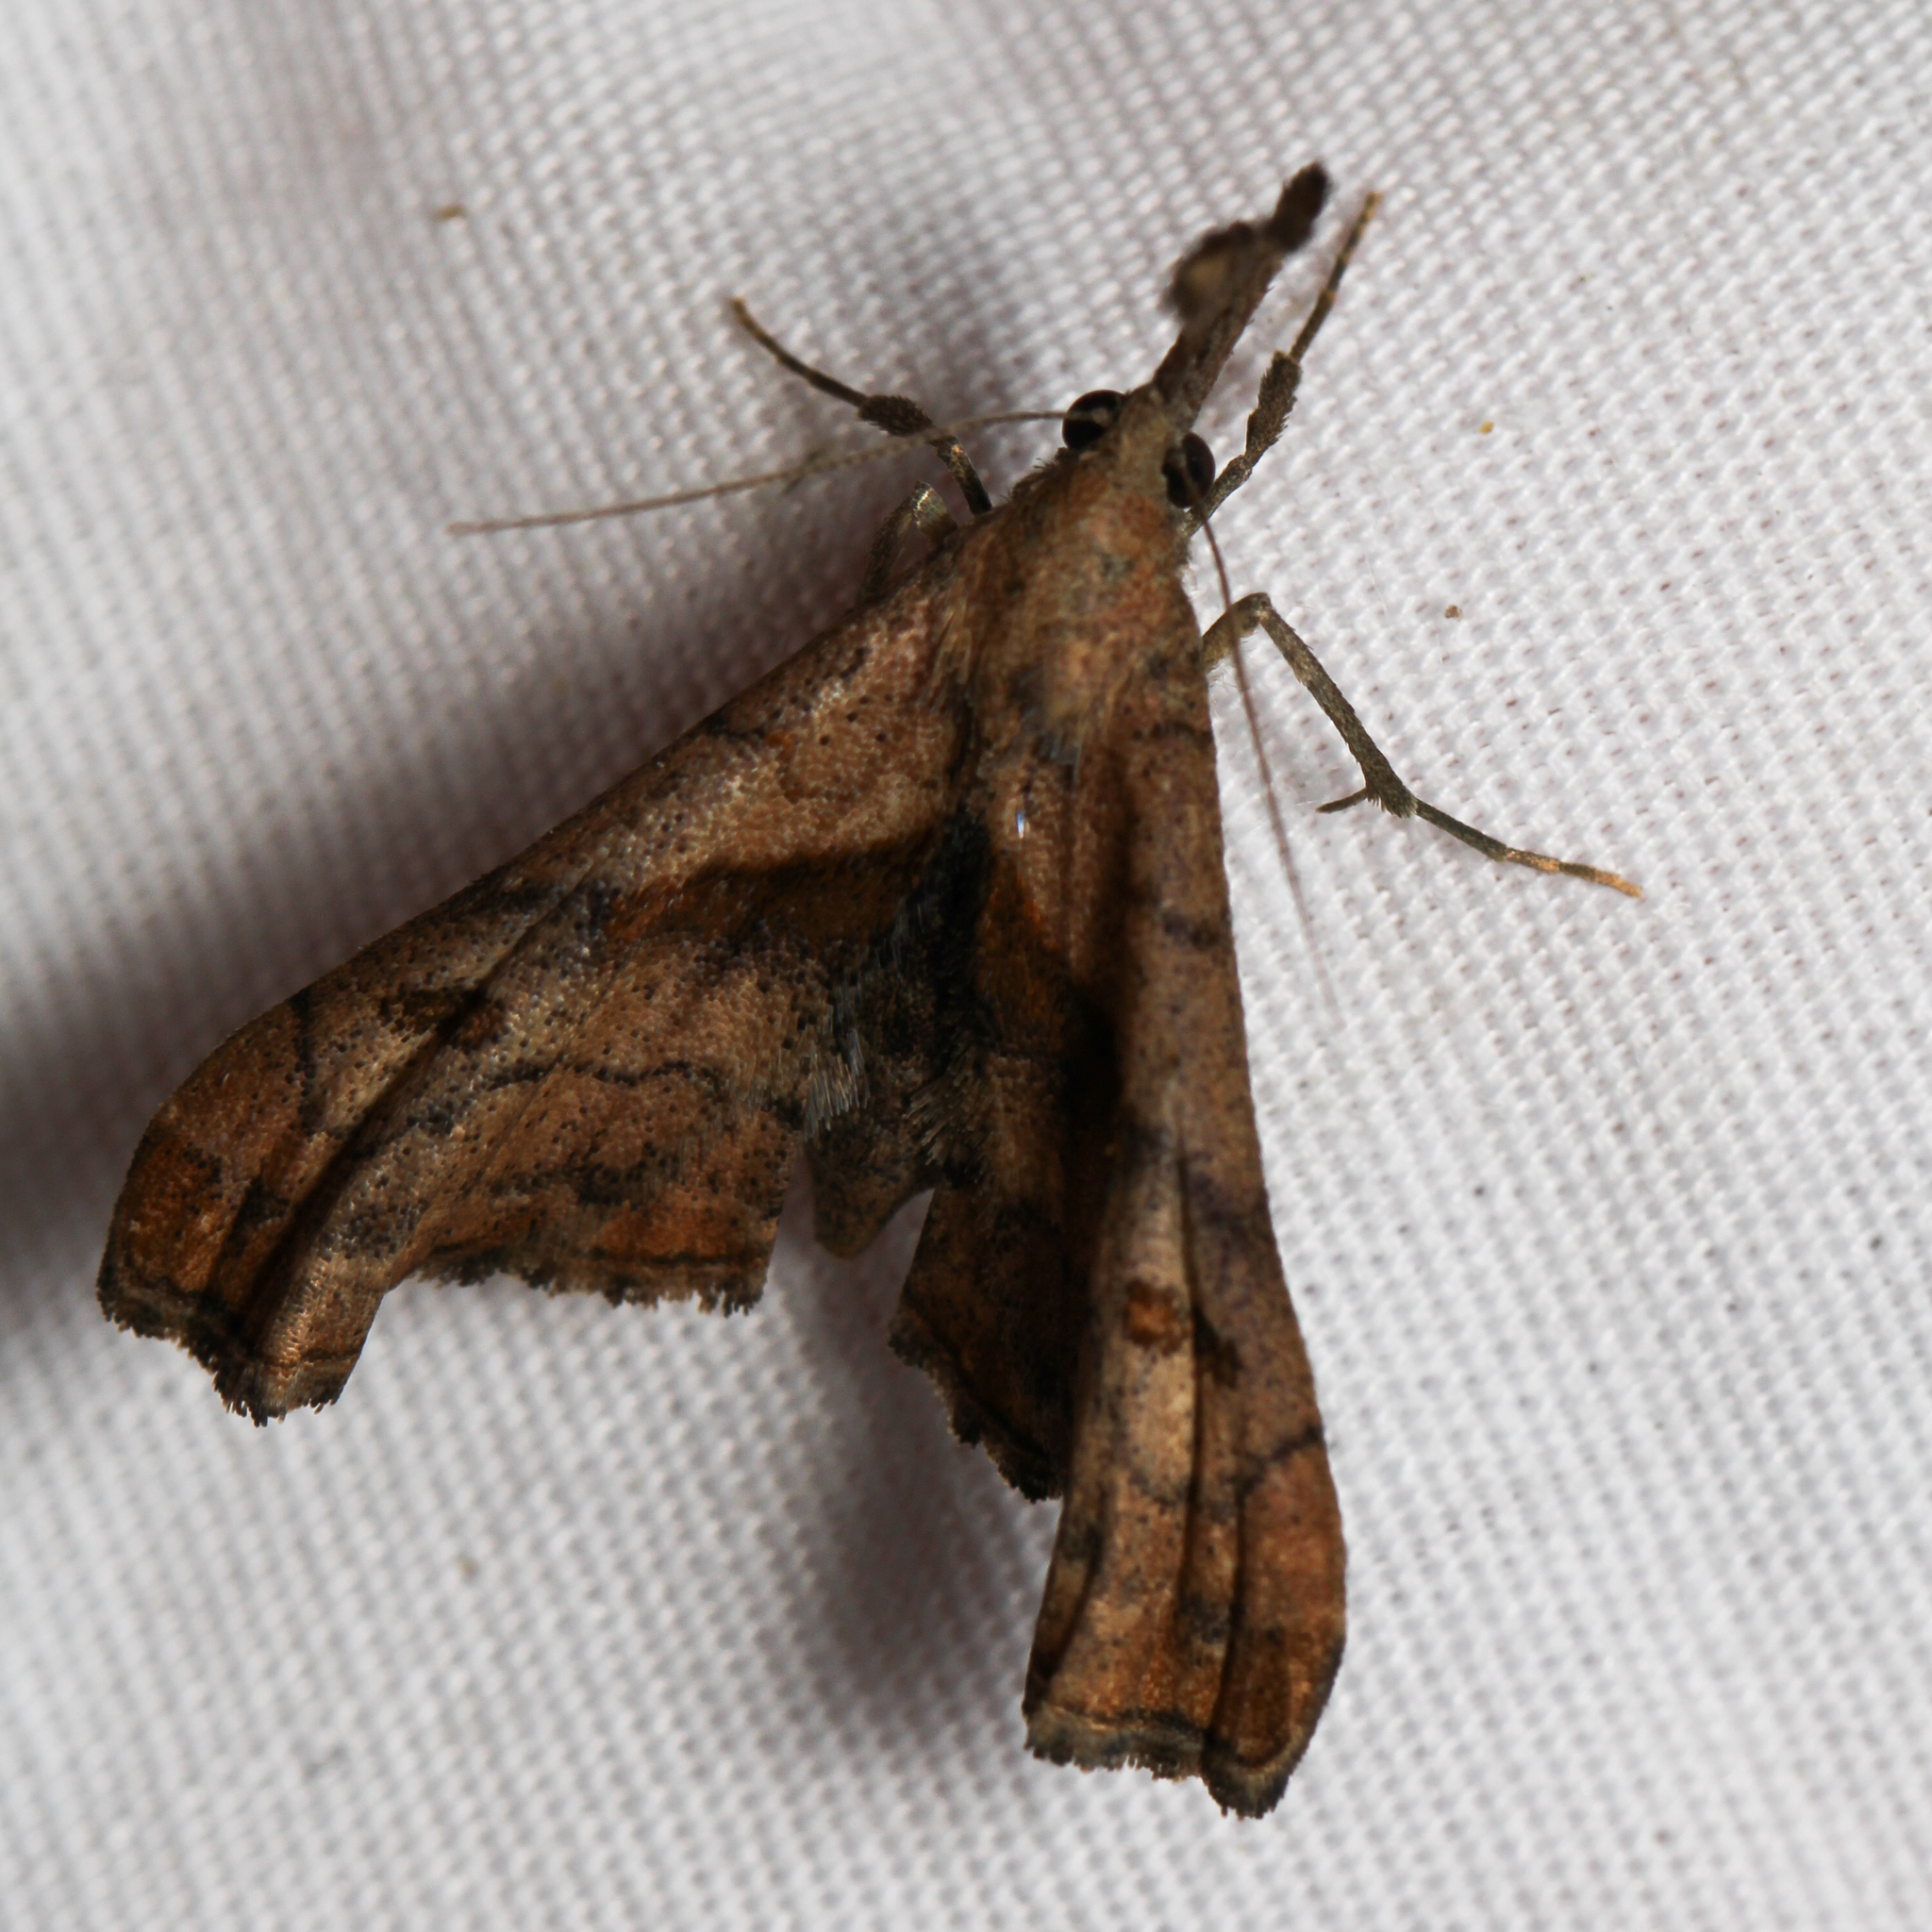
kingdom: Animalia
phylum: Arthropoda
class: Insecta
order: Lepidoptera
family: Erebidae
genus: Palthis
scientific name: Palthis angulalis
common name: Dark-spotted palthis moth
